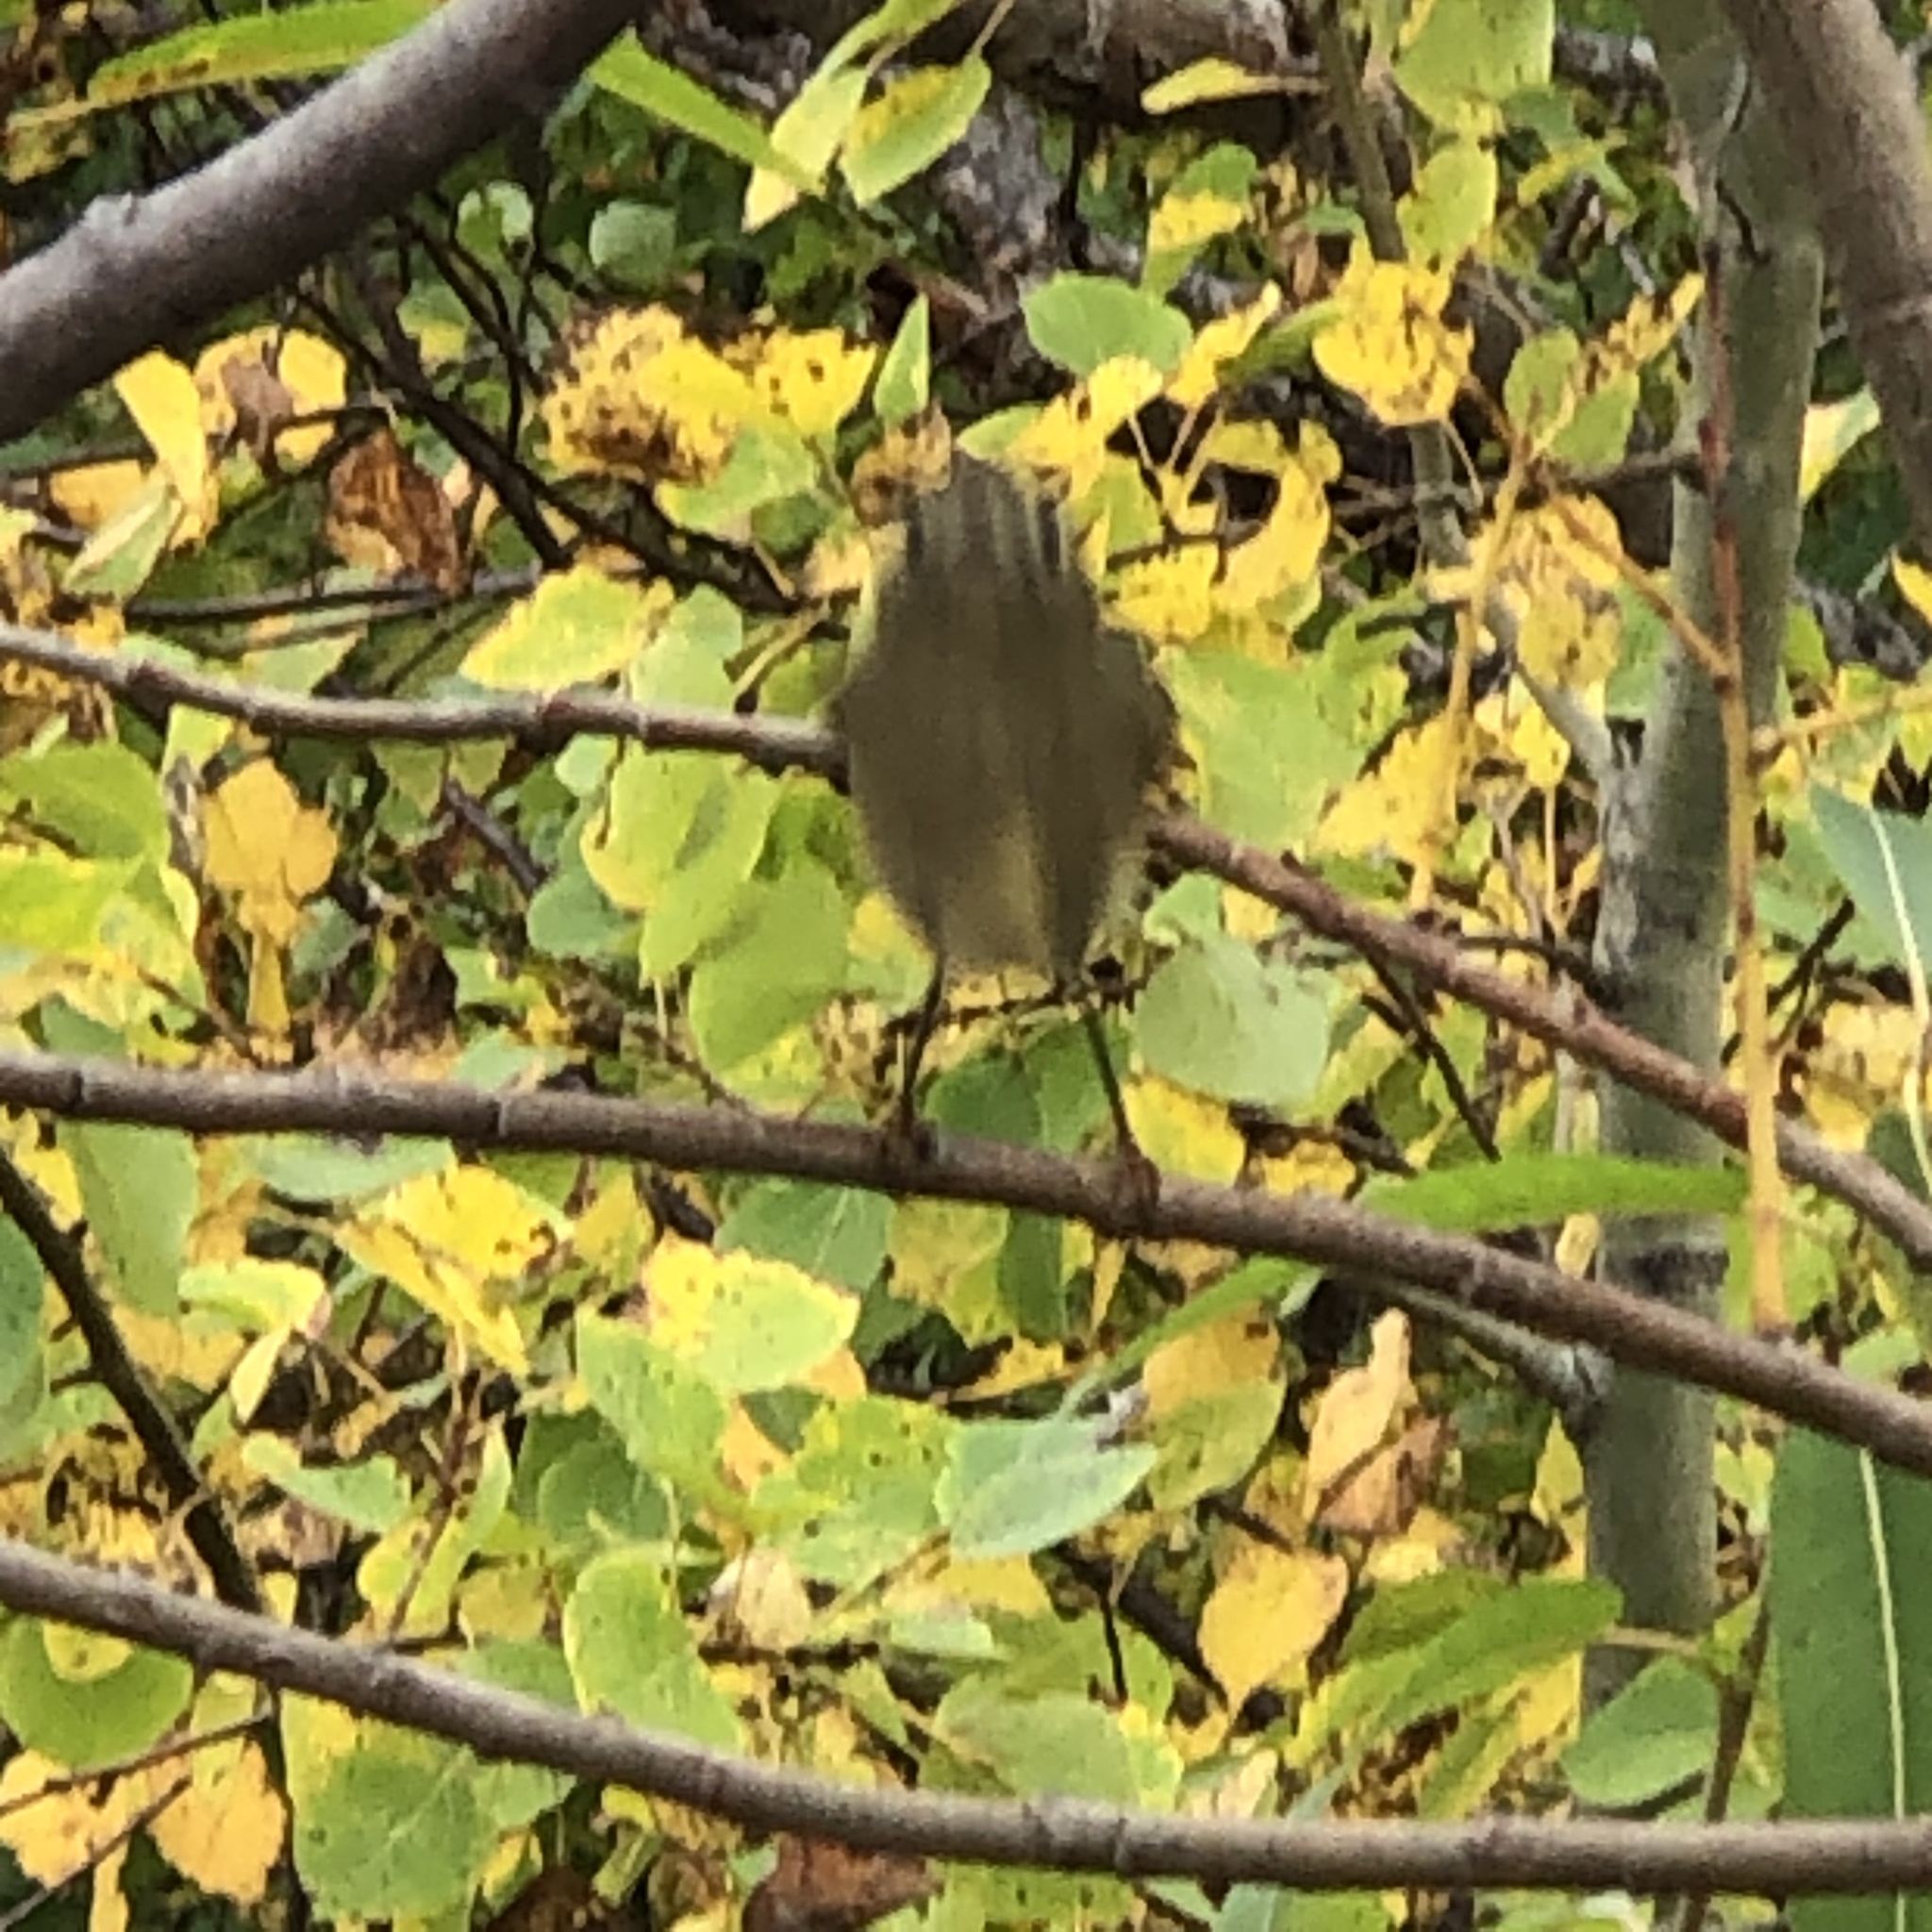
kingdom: Animalia
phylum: Chordata
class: Aves
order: Passeriformes
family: Regulidae
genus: Regulus
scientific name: Regulus calendula
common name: Ruby-crowned kinglet
